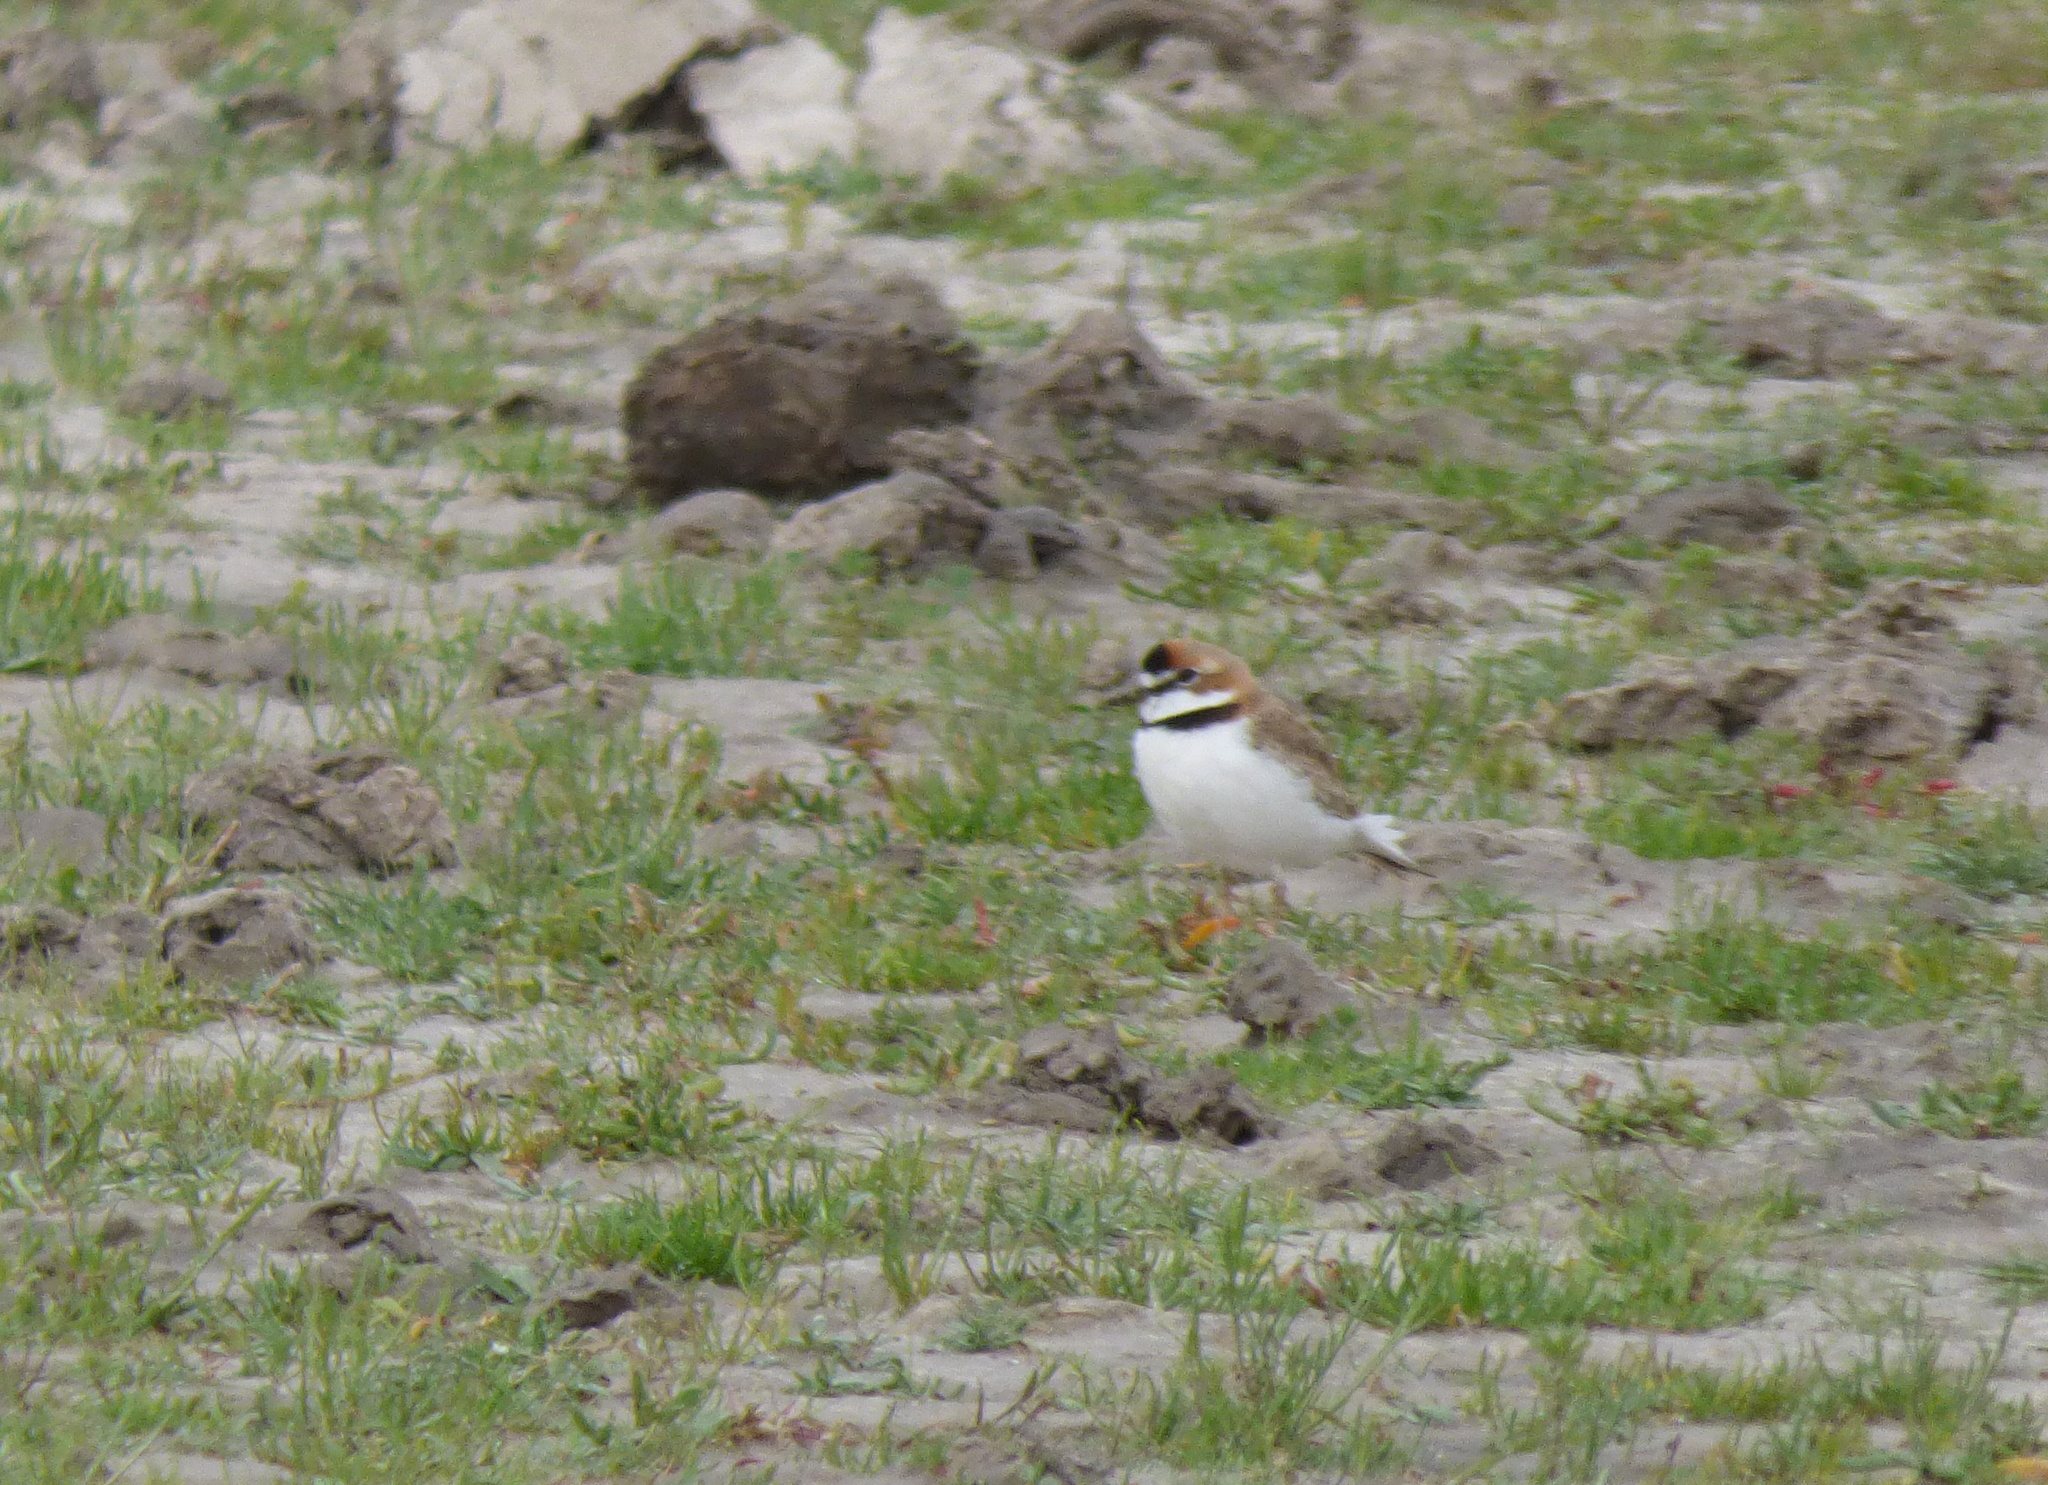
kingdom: Animalia
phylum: Chordata
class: Aves
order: Charadriiformes
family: Charadriidae
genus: Anarhynchus
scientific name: Anarhynchus
